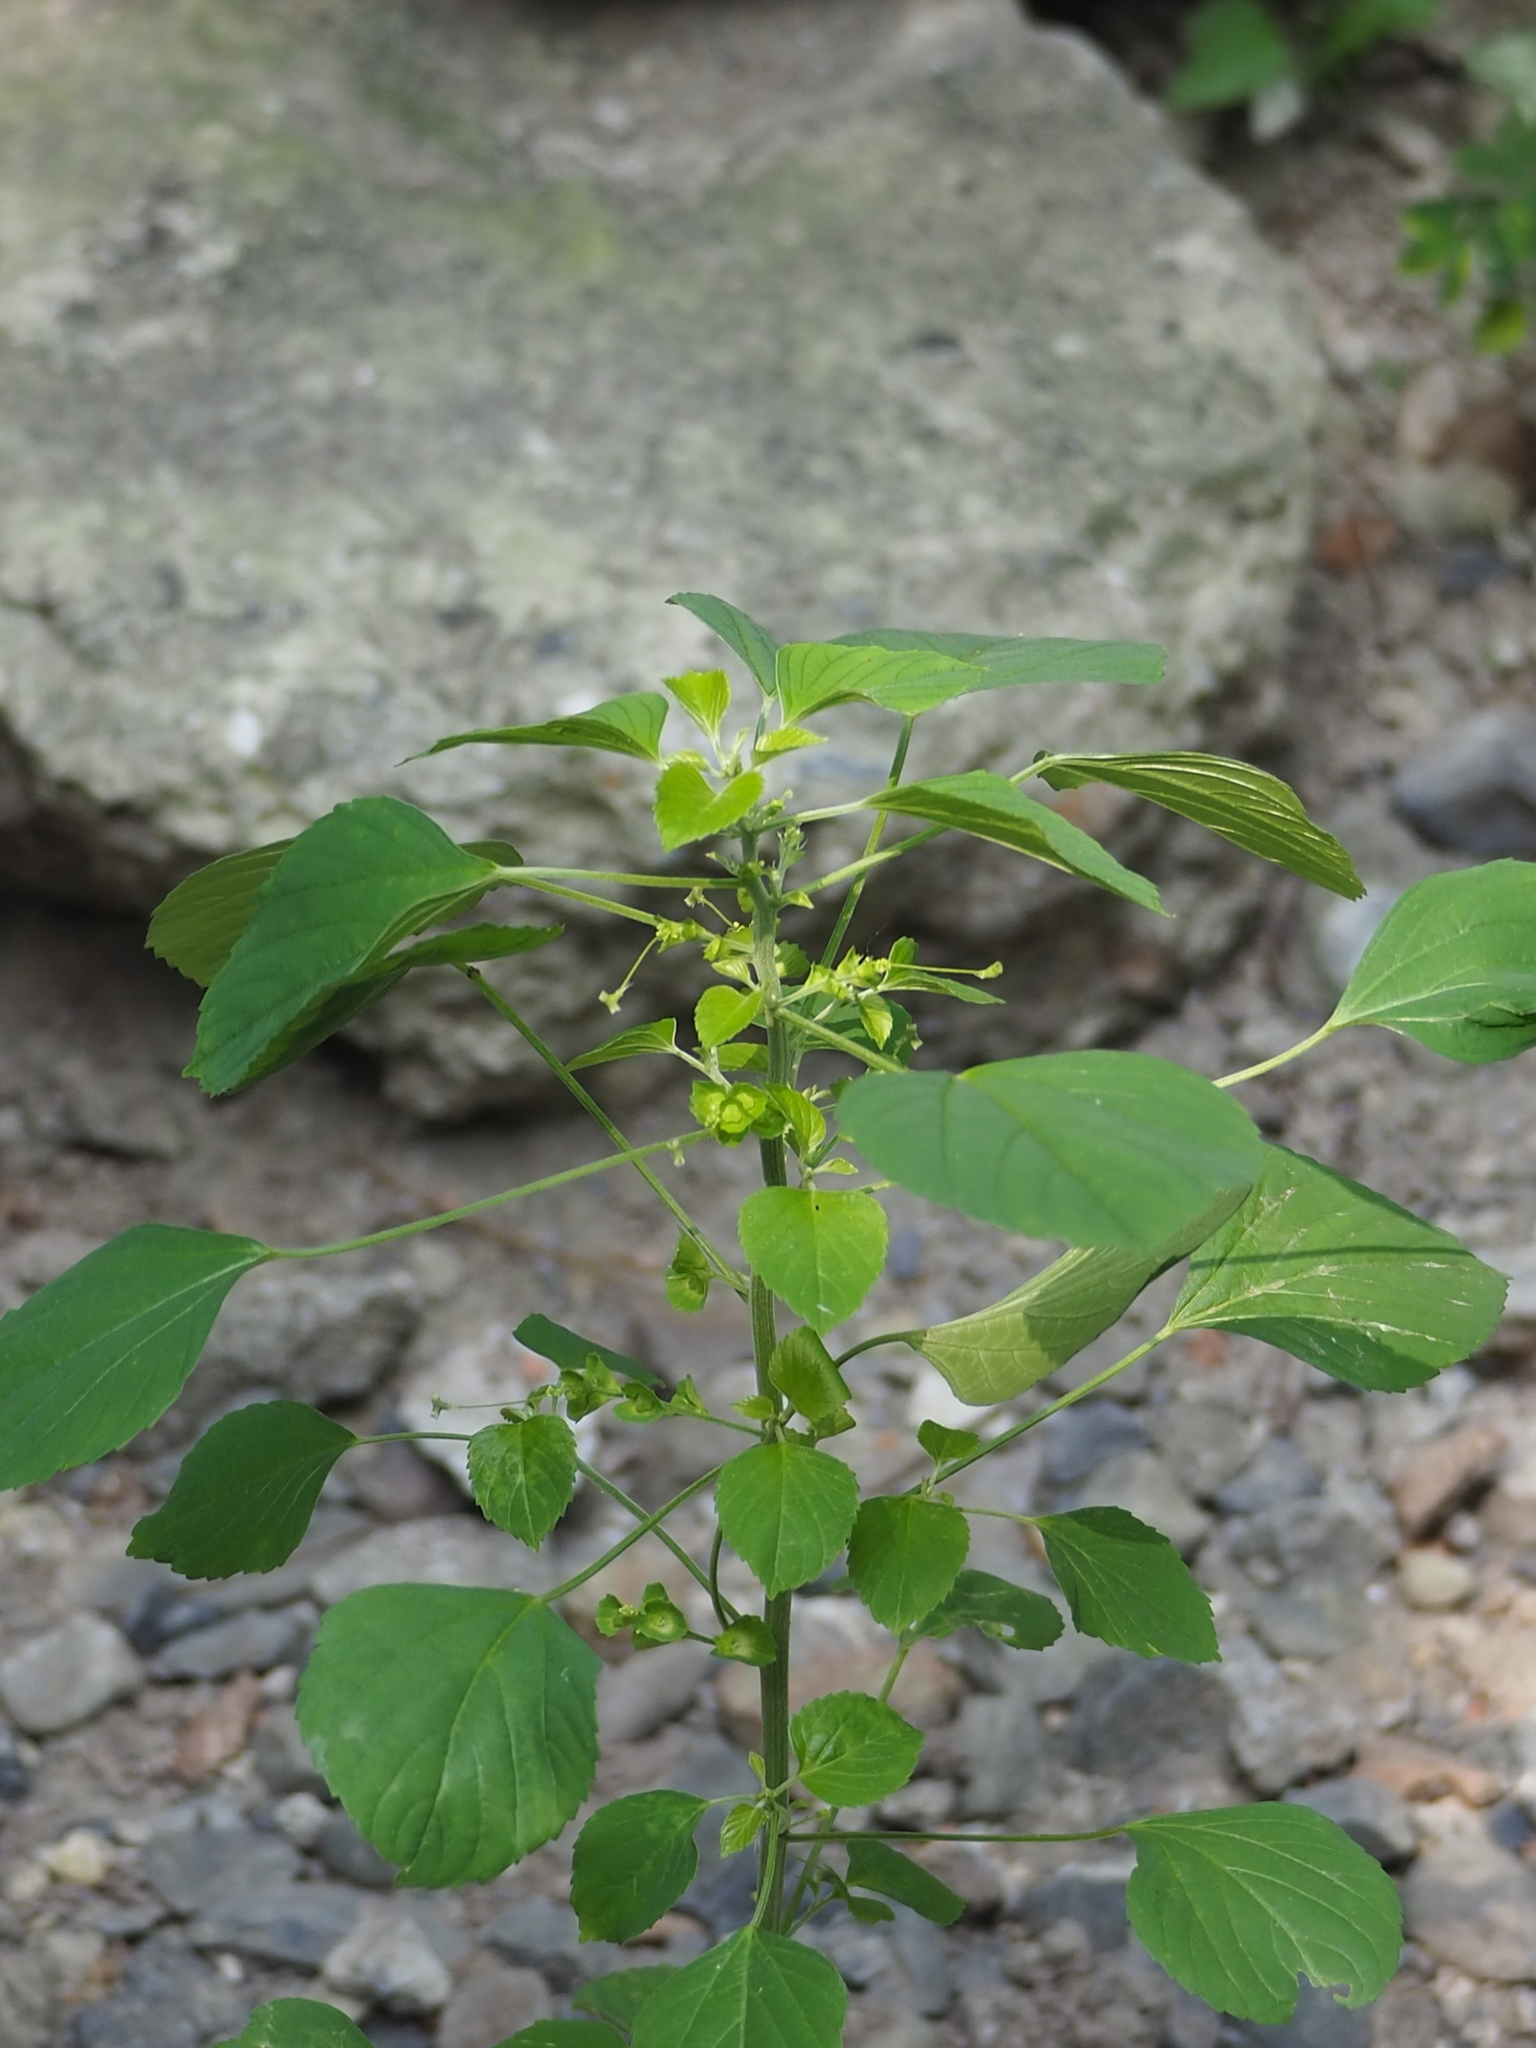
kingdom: Plantae
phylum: Tracheophyta
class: Magnoliopsida
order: Malpighiales
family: Euphorbiaceae
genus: Acalypha
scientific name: Acalypha indica
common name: Indian acalypha
